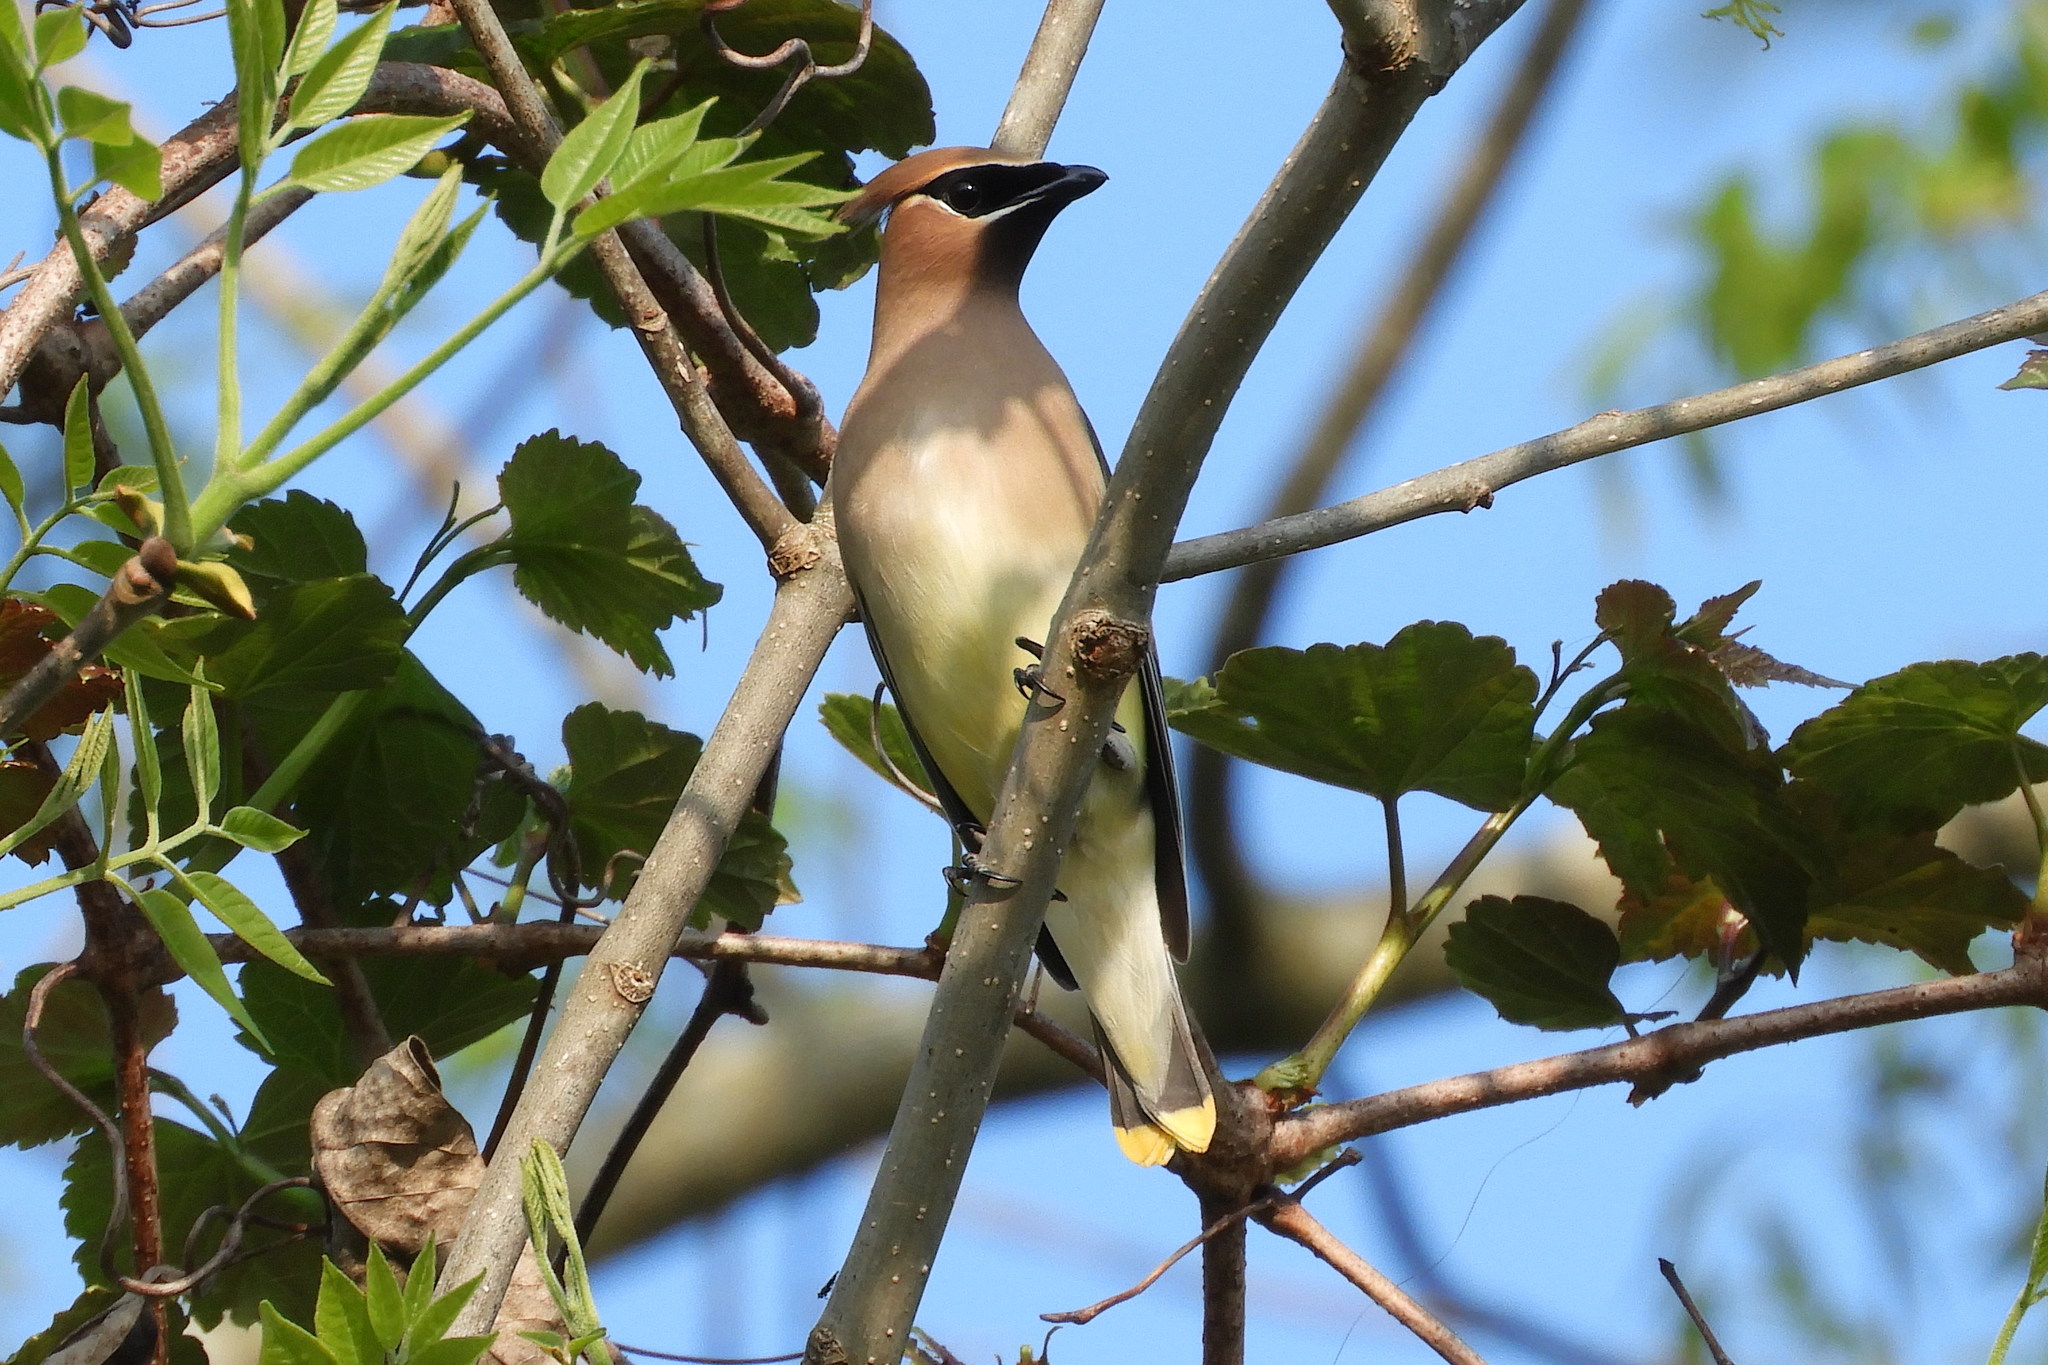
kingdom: Animalia
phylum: Chordata
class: Aves
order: Passeriformes
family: Bombycillidae
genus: Bombycilla
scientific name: Bombycilla cedrorum
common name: Cedar waxwing
